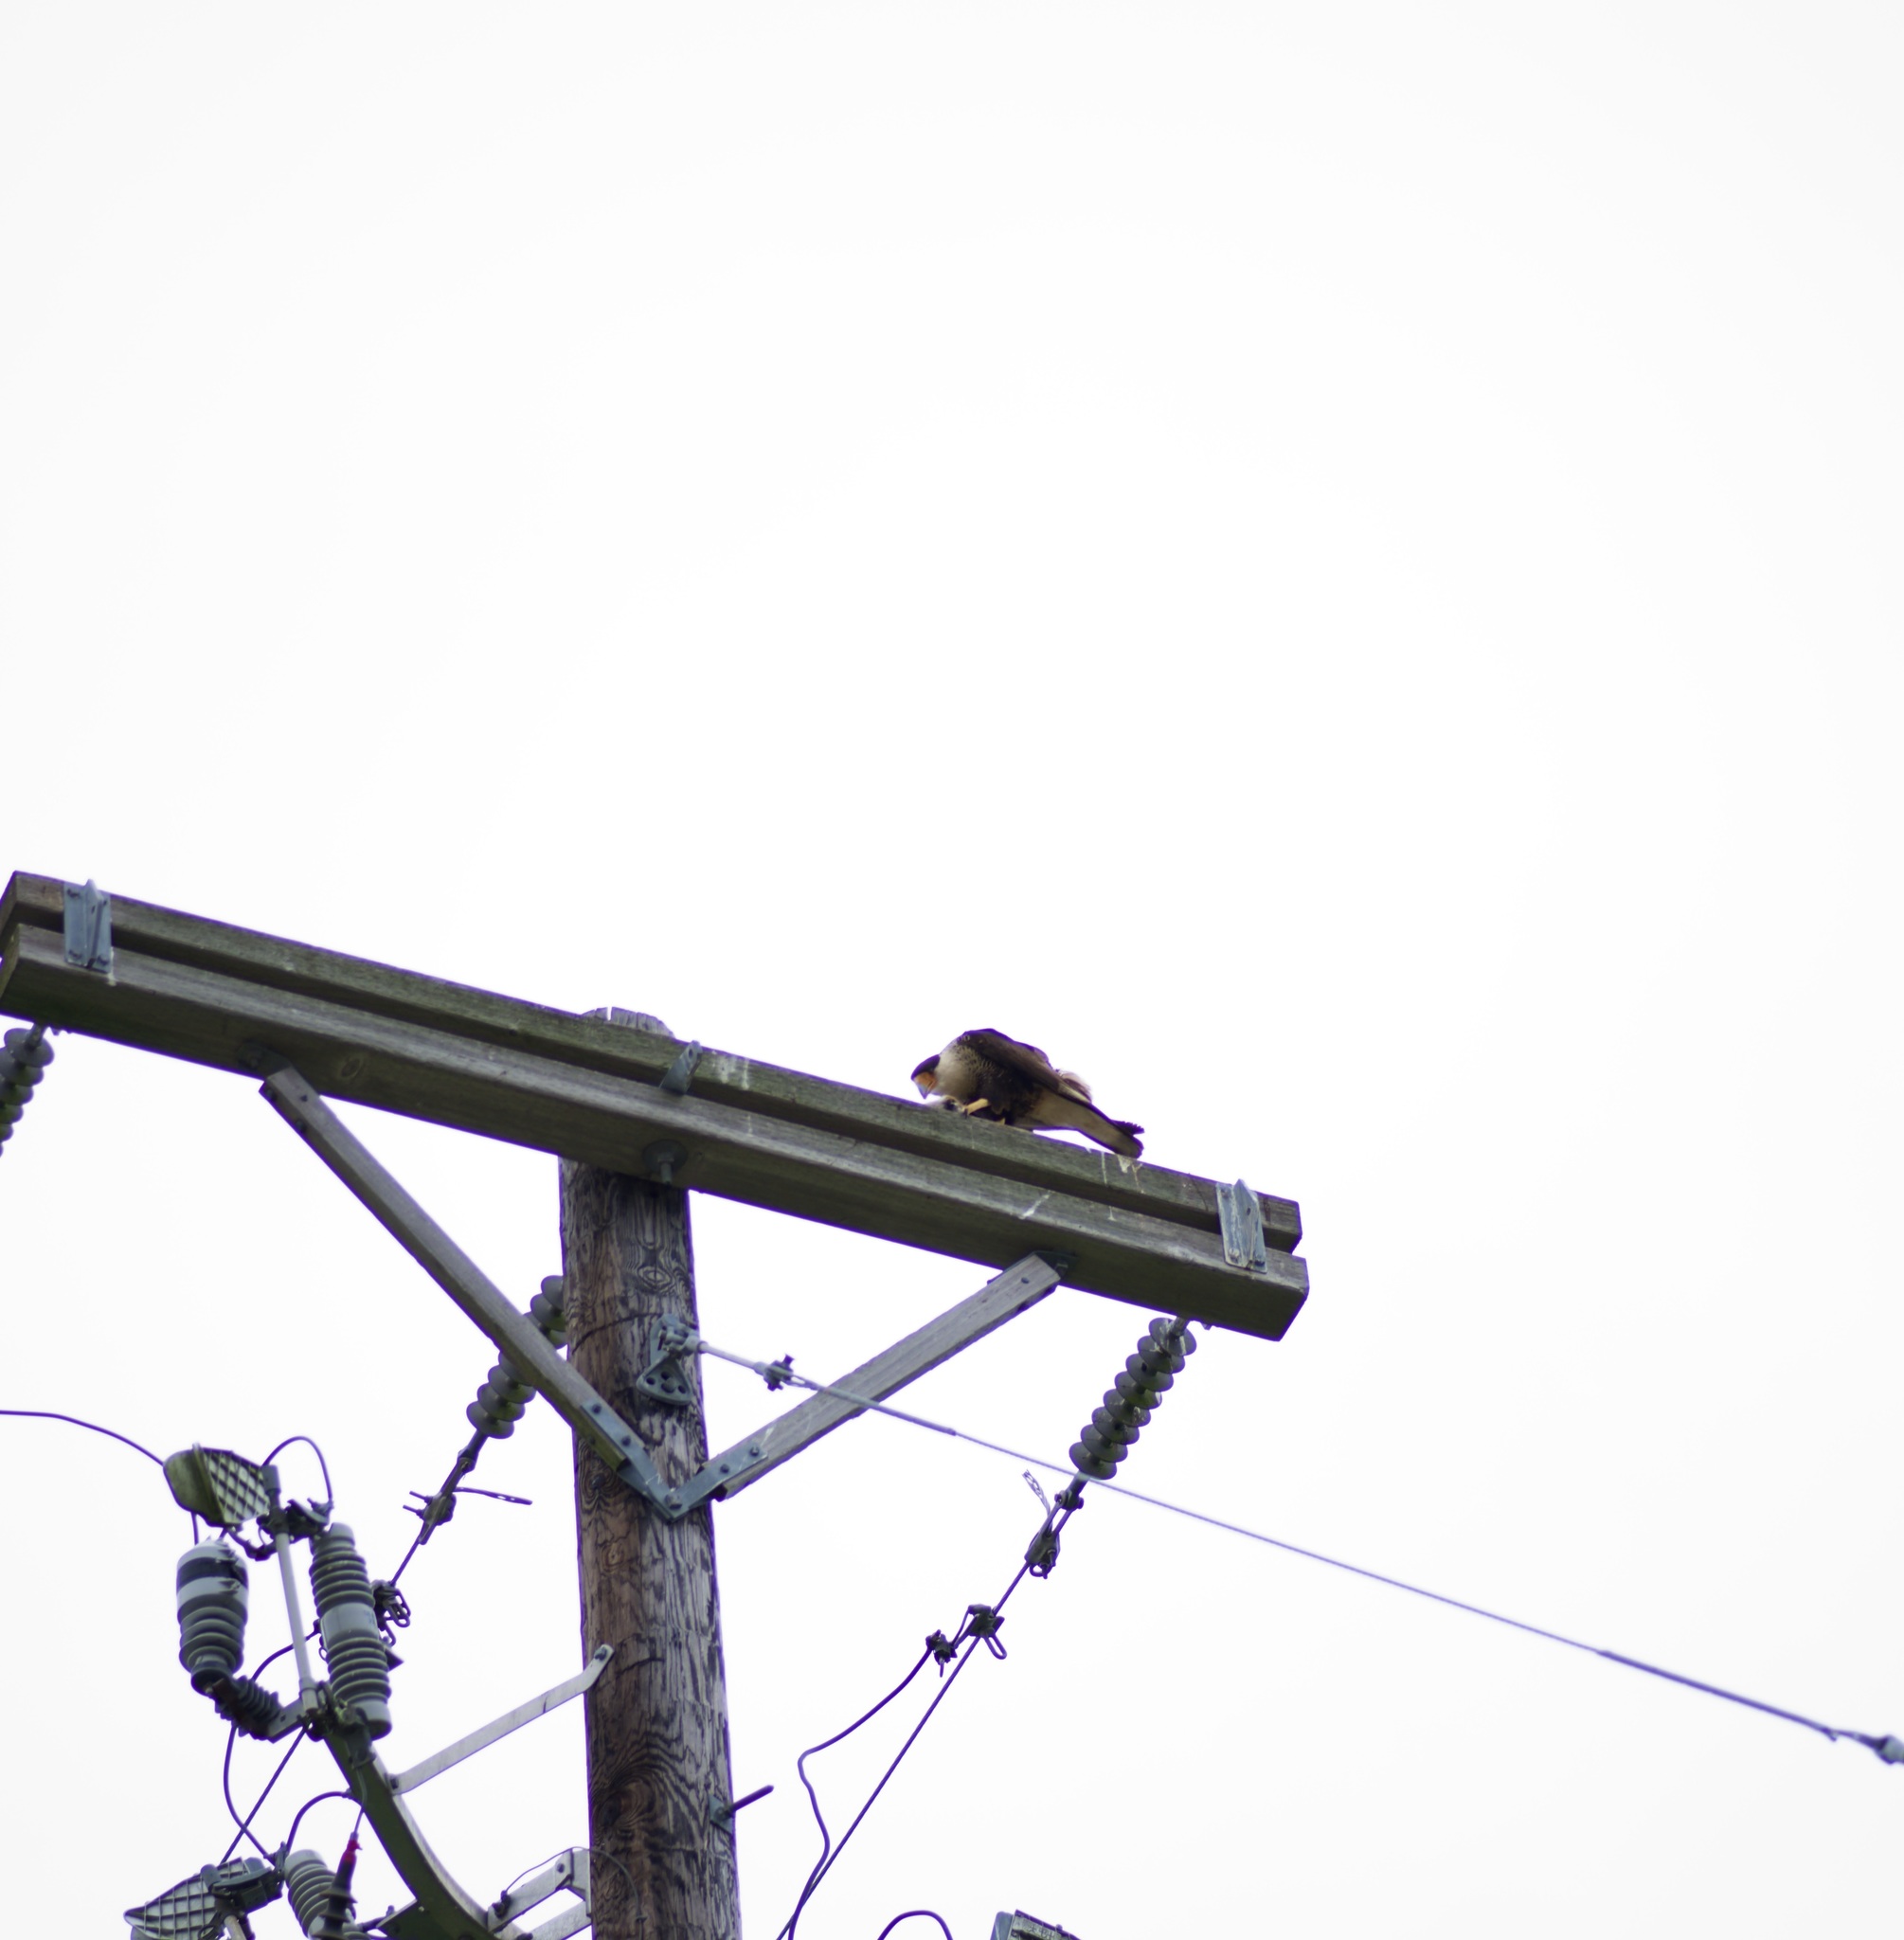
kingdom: Animalia
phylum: Chordata
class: Aves
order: Falconiformes
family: Falconidae
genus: Caracara
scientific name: Caracara plancus
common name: Southern caracara
